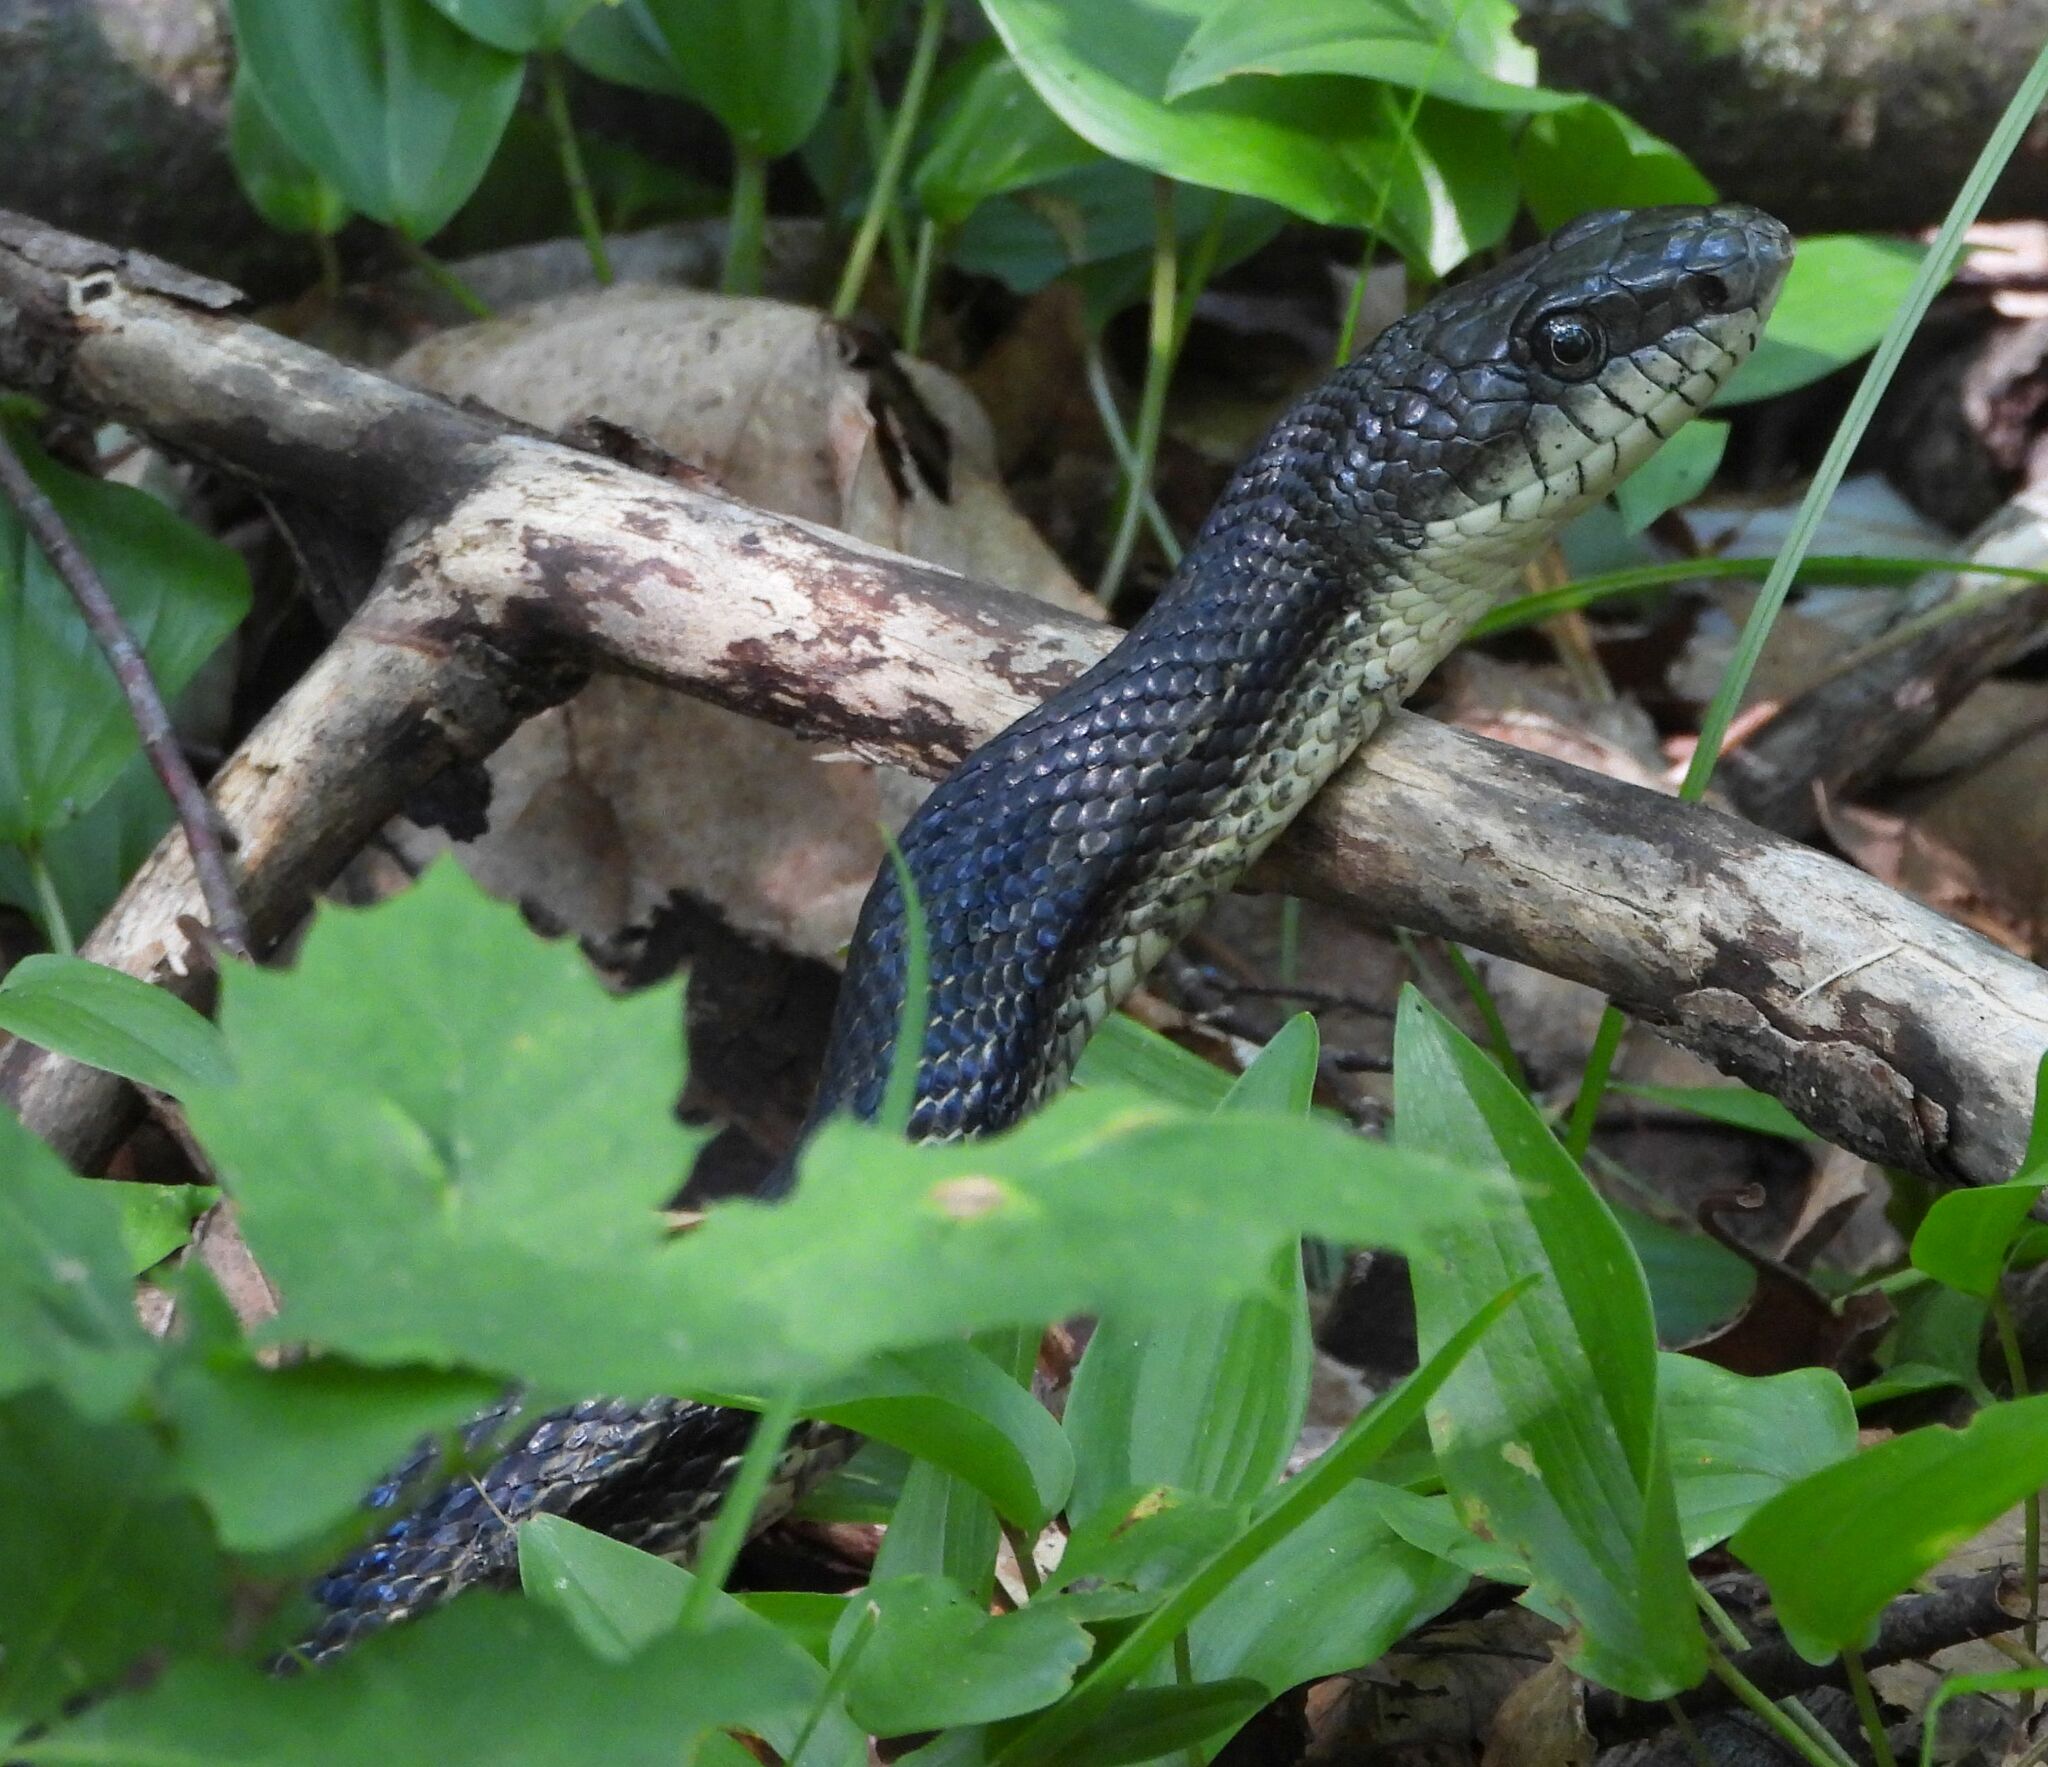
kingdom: Animalia
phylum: Chordata
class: Squamata
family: Colubridae
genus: Pantherophis
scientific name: Pantherophis spiloides
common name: Gray rat snake
